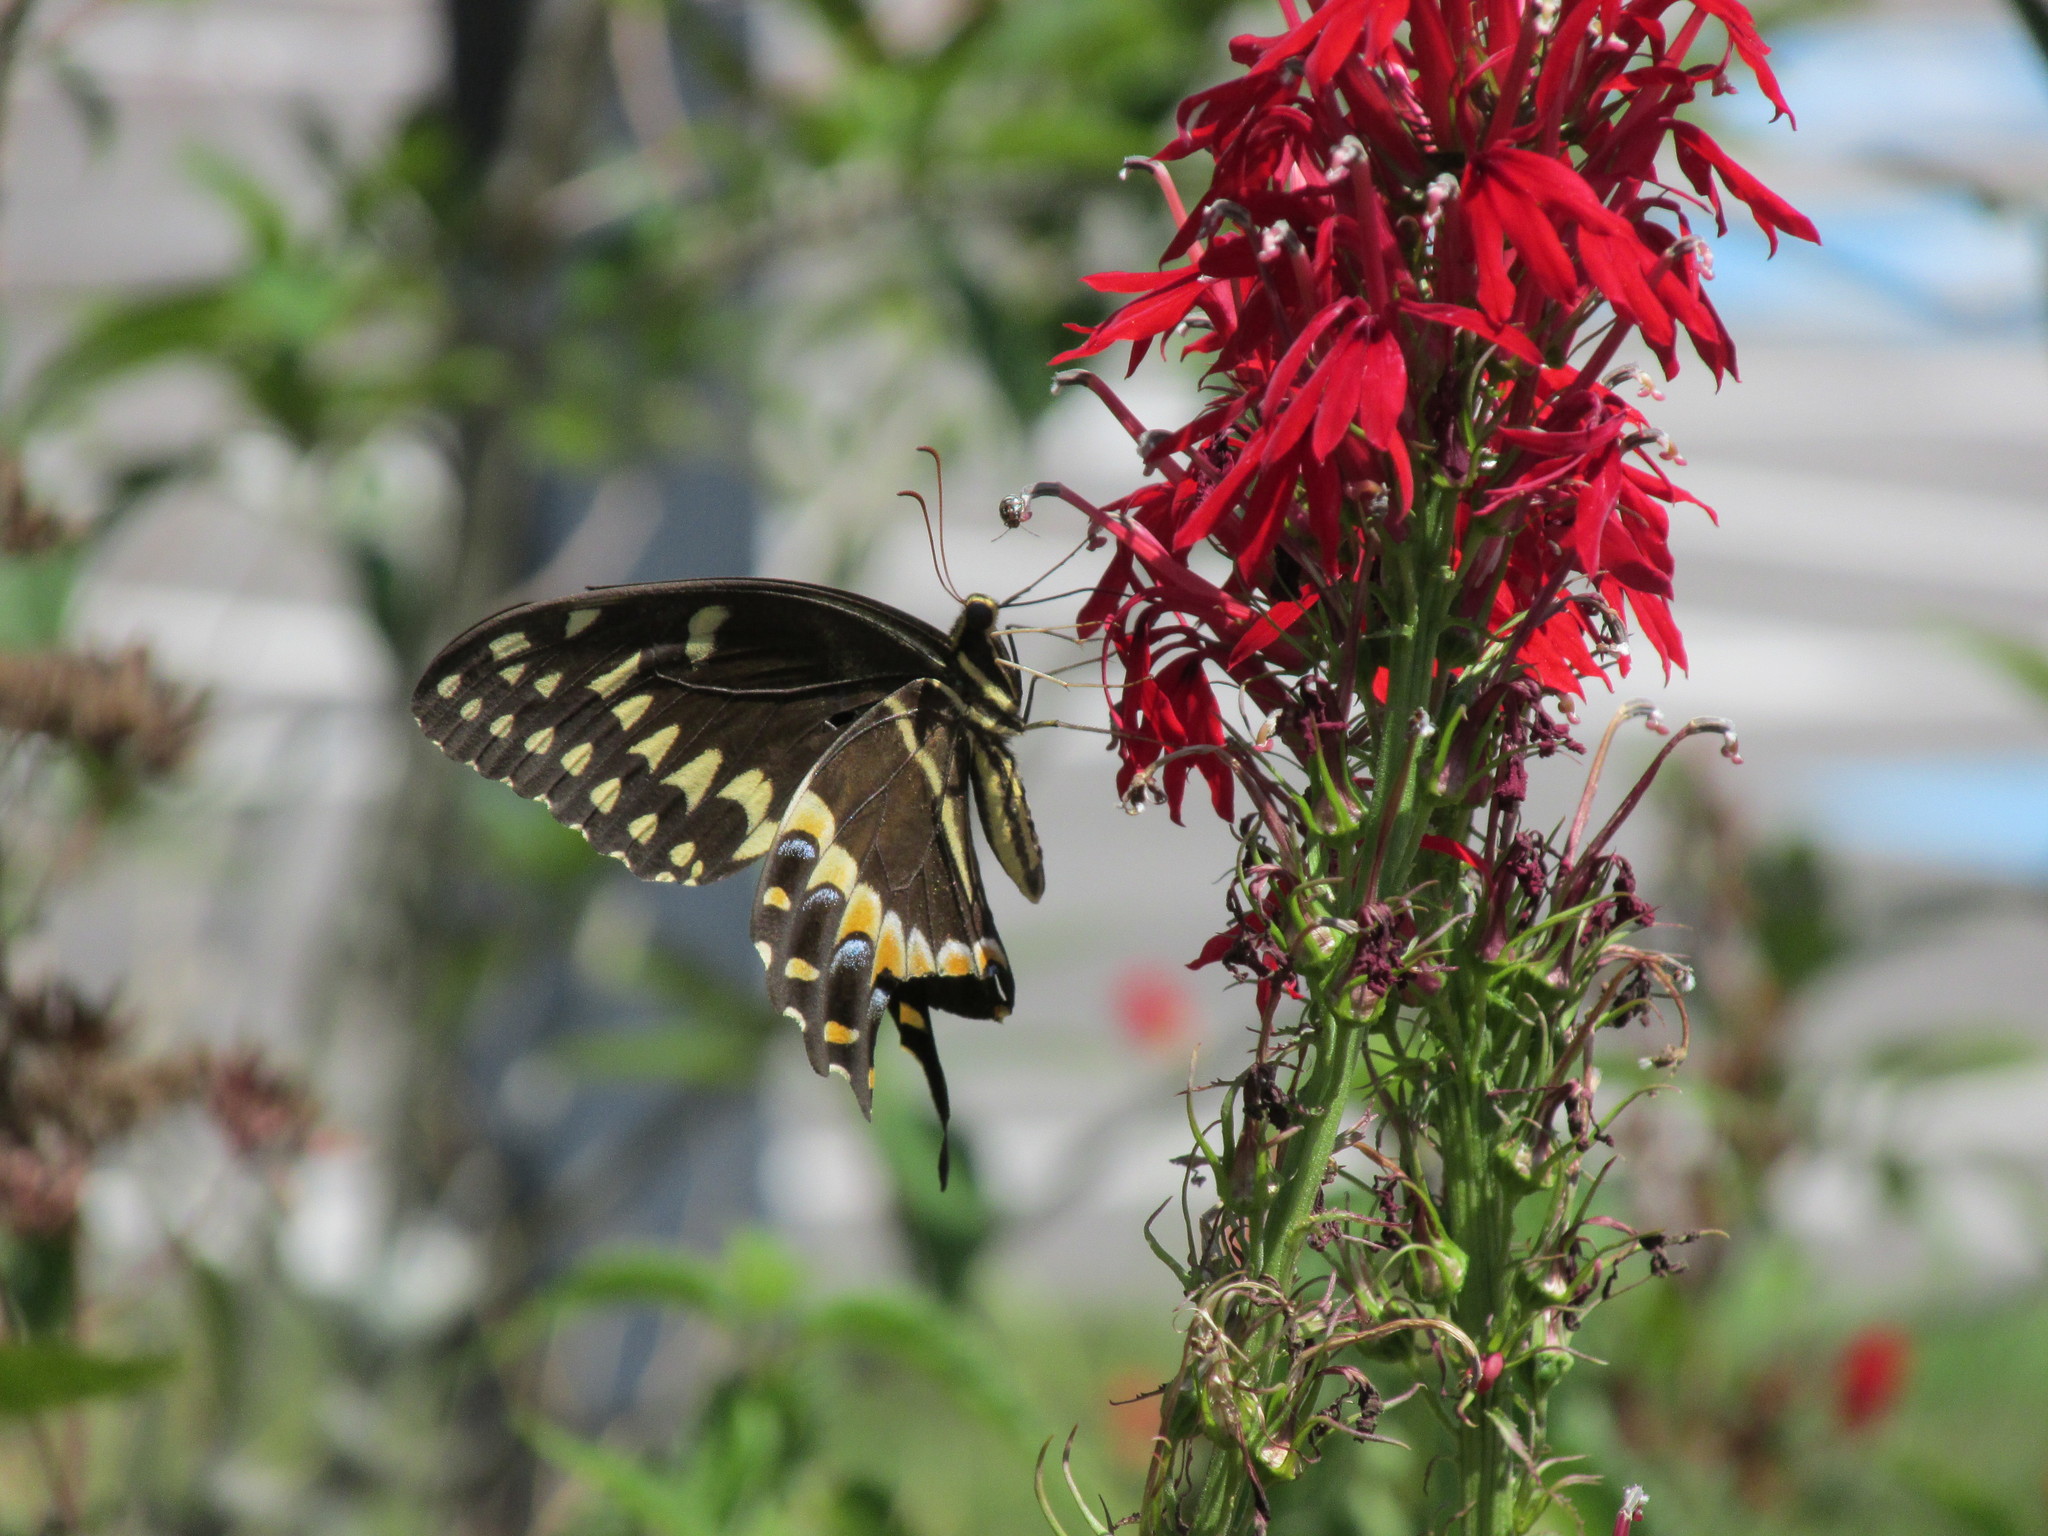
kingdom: Animalia
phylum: Arthropoda
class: Insecta
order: Lepidoptera
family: Papilionidae
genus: Papilio
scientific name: Papilio palamedes
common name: Palamedes swallowtail
